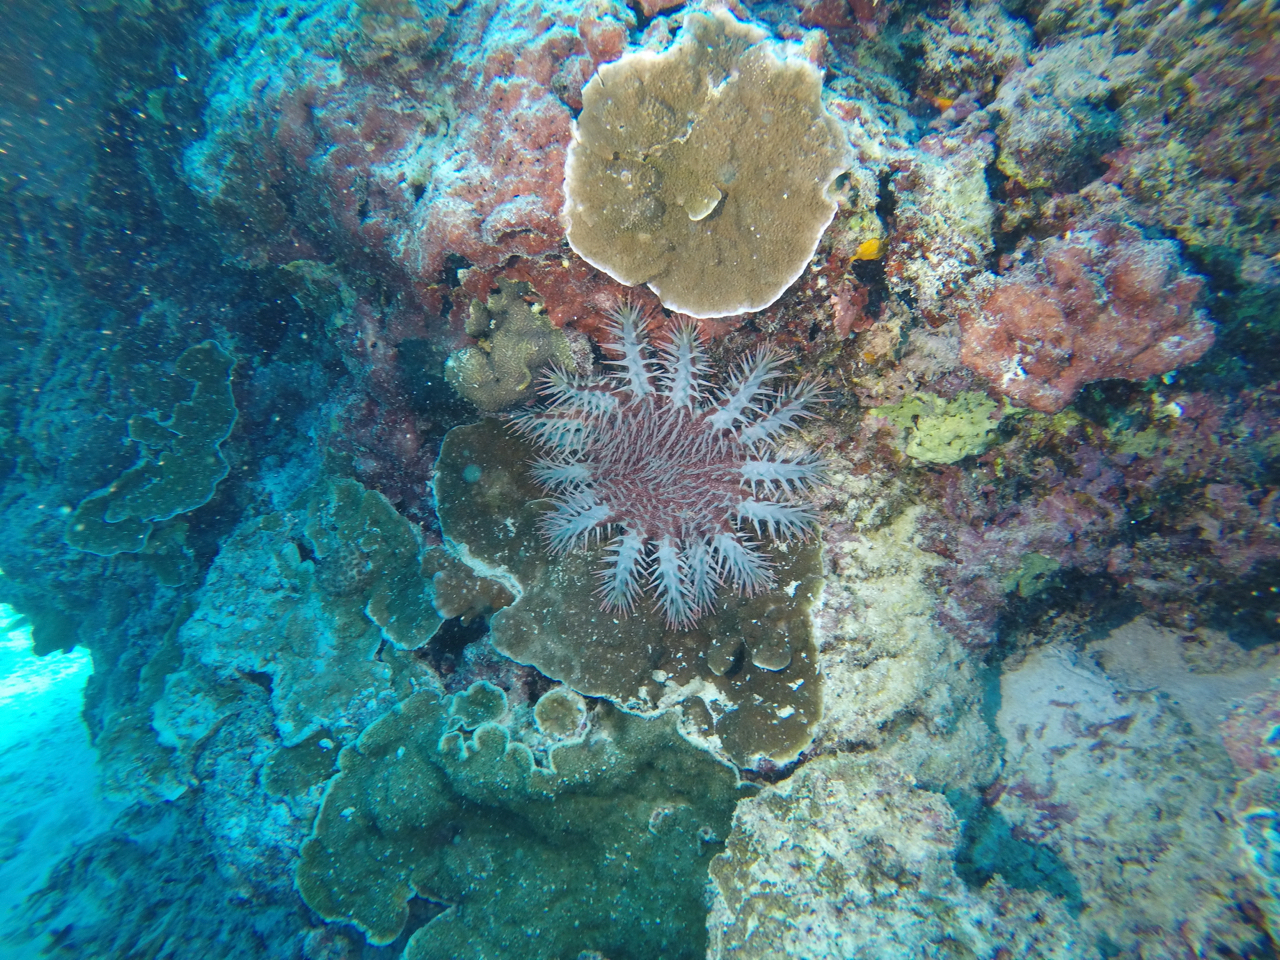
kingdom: Animalia
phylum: Echinodermata
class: Asteroidea
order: Valvatida
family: Acanthasteridae
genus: Acanthaster
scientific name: Acanthaster planci
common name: Crown-of-thorns
